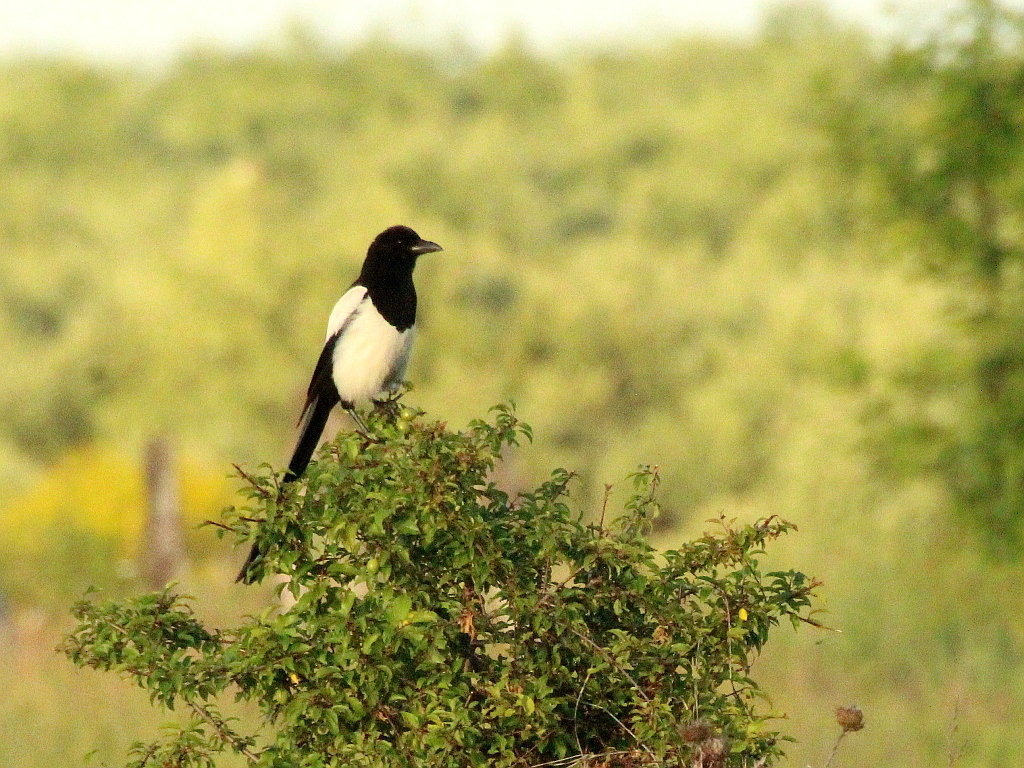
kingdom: Animalia
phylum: Chordata
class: Aves
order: Passeriformes
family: Corvidae
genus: Pica
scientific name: Pica pica
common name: Eurasian magpie
